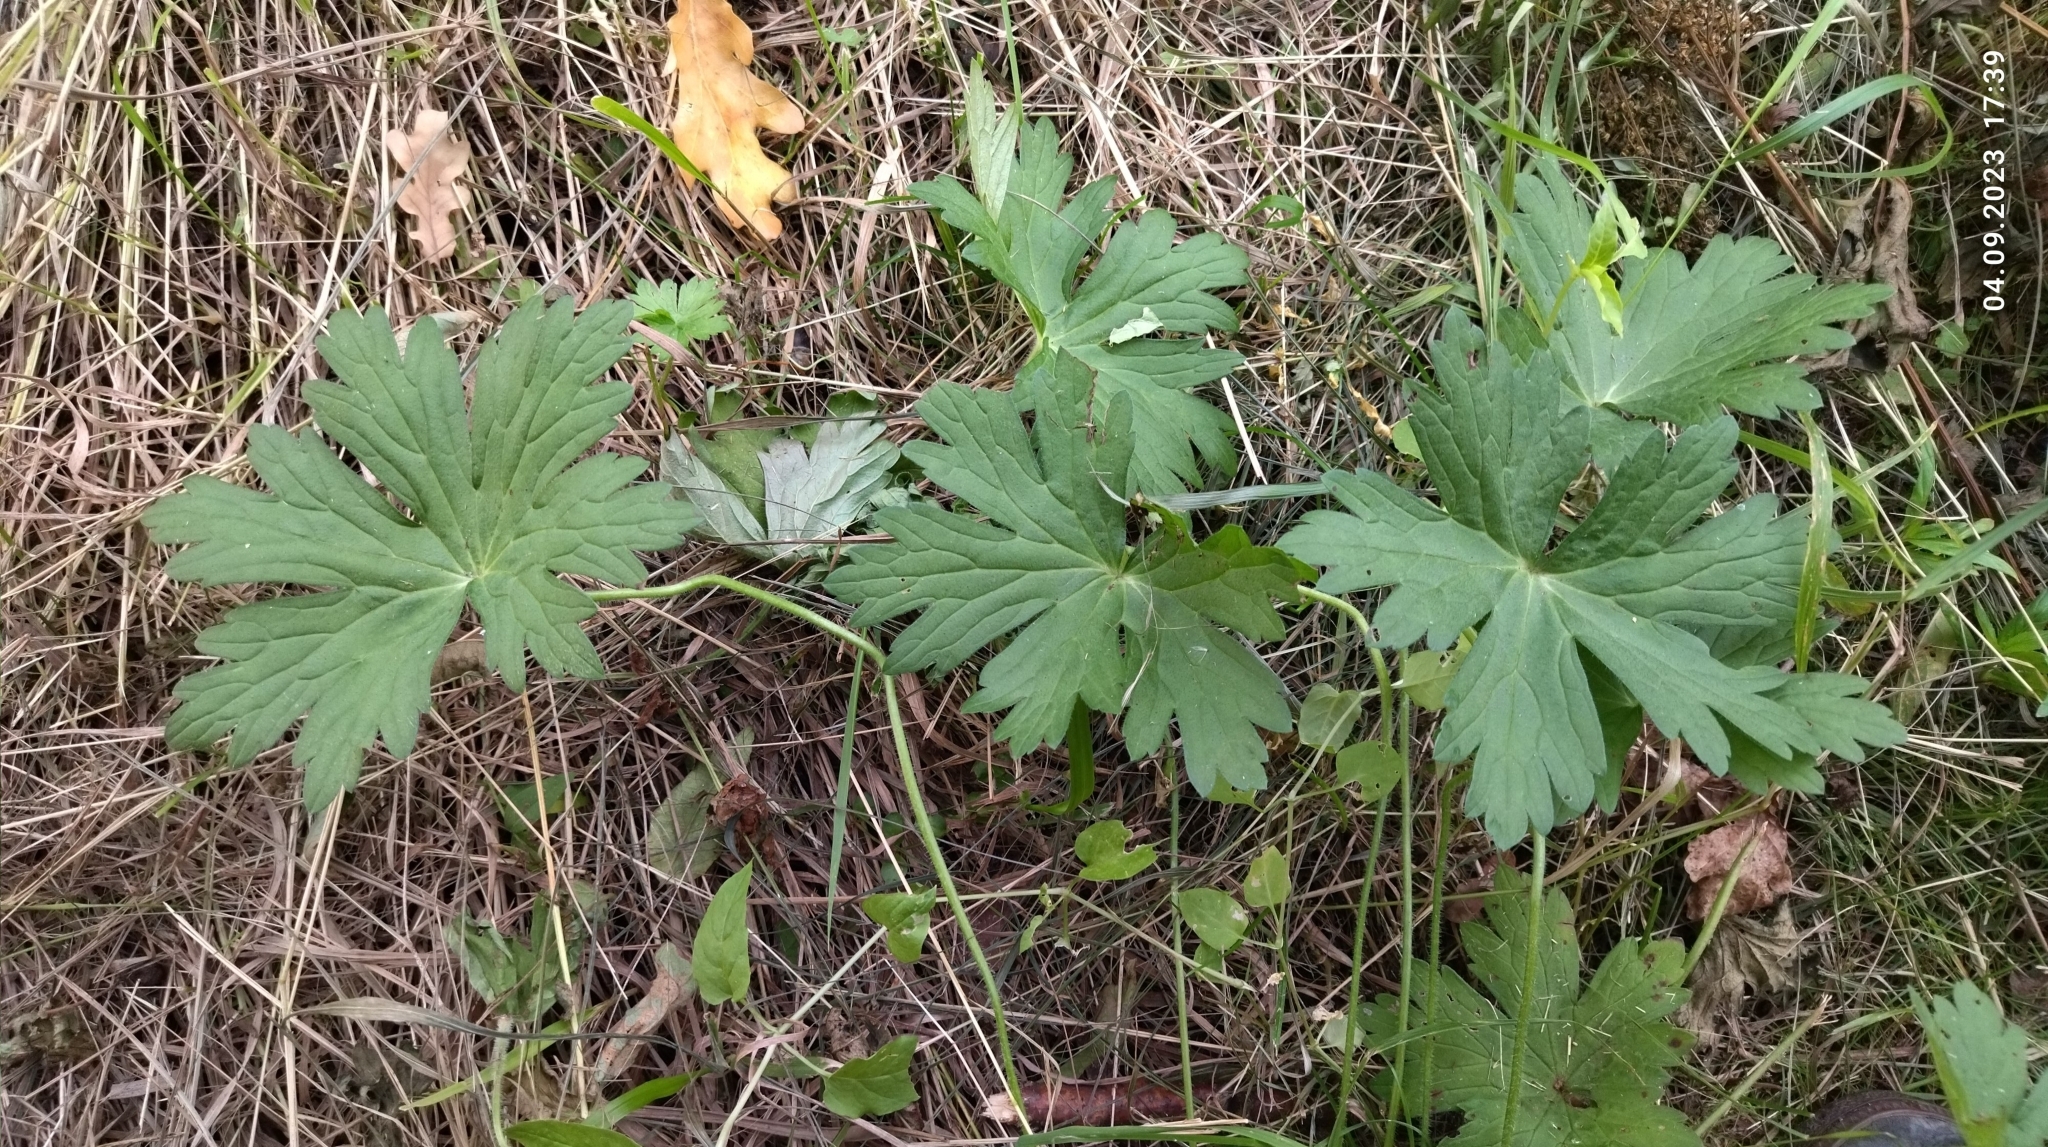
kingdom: Plantae
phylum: Tracheophyta
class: Magnoliopsida
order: Geraniales
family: Geraniaceae
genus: Geranium
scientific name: Geranium palustre
